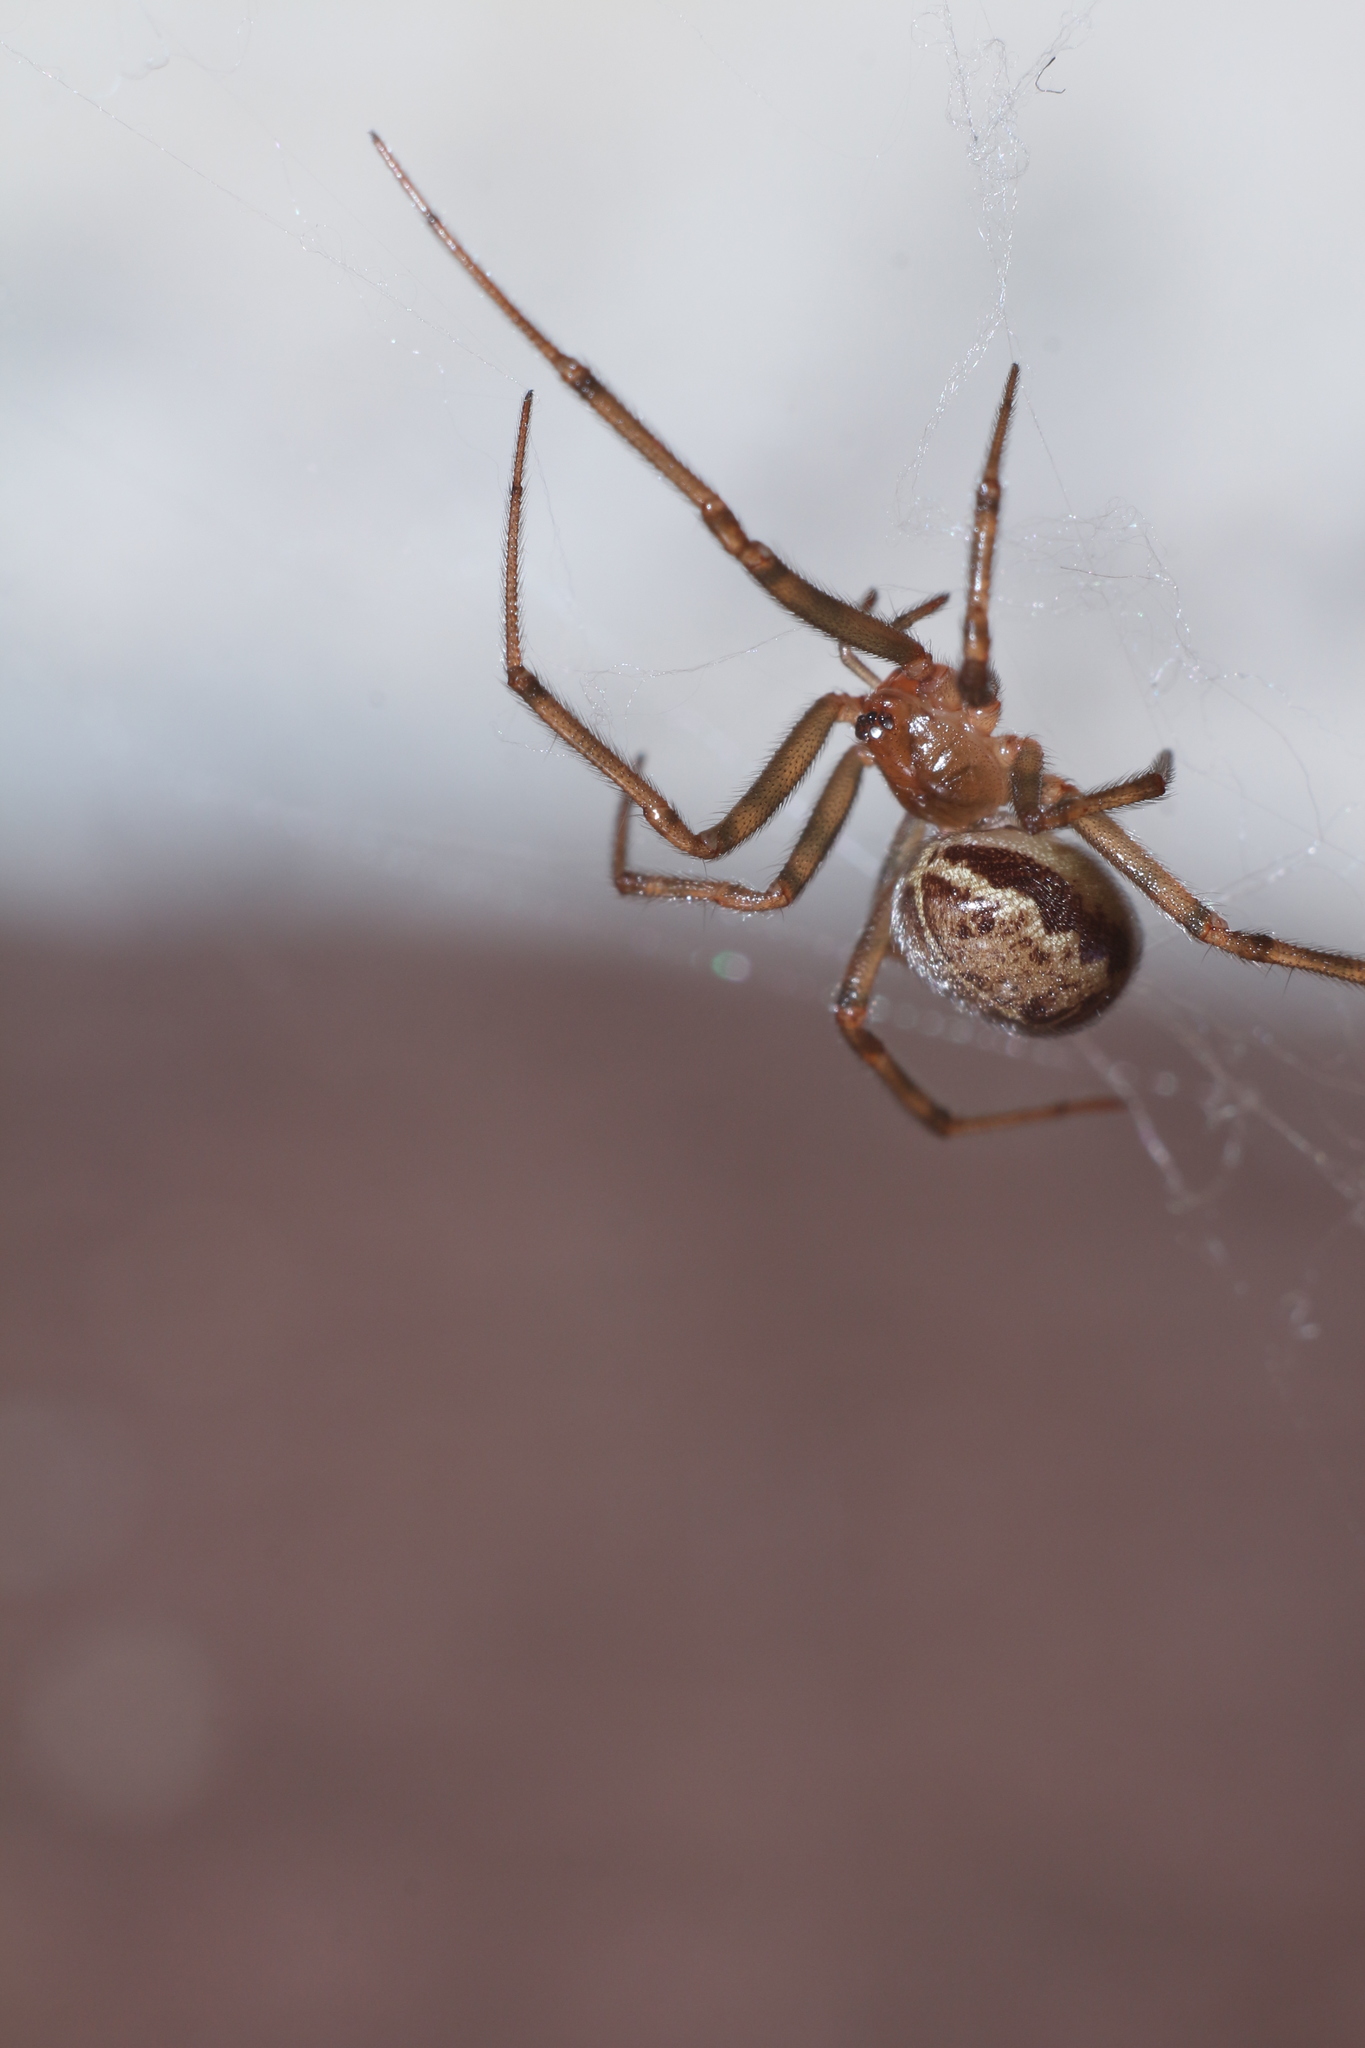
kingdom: Animalia
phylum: Arthropoda
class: Arachnida
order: Araneae
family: Theridiidae
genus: Steatoda
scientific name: Steatoda castanea
